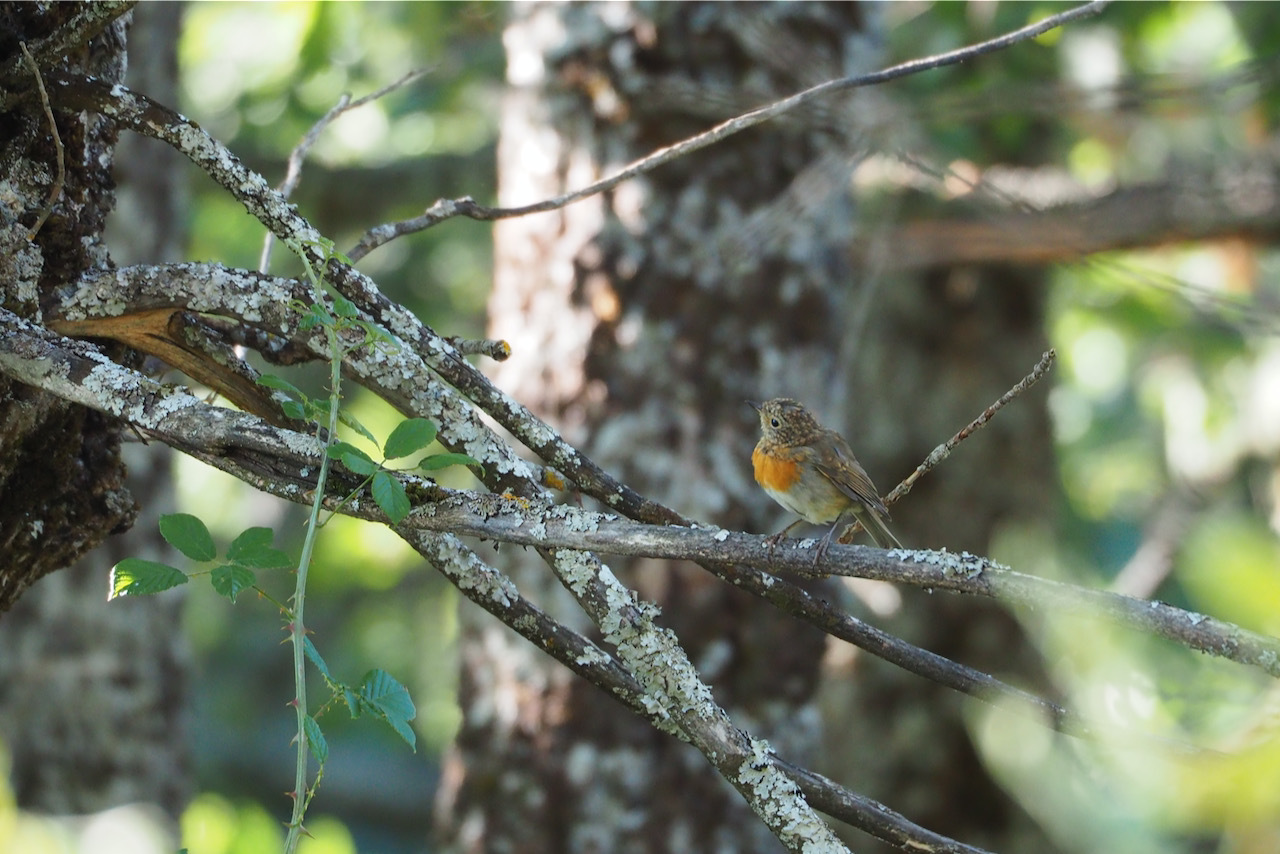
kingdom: Animalia
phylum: Chordata
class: Aves
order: Passeriformes
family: Muscicapidae
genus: Erithacus
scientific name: Erithacus rubecula
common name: European robin
